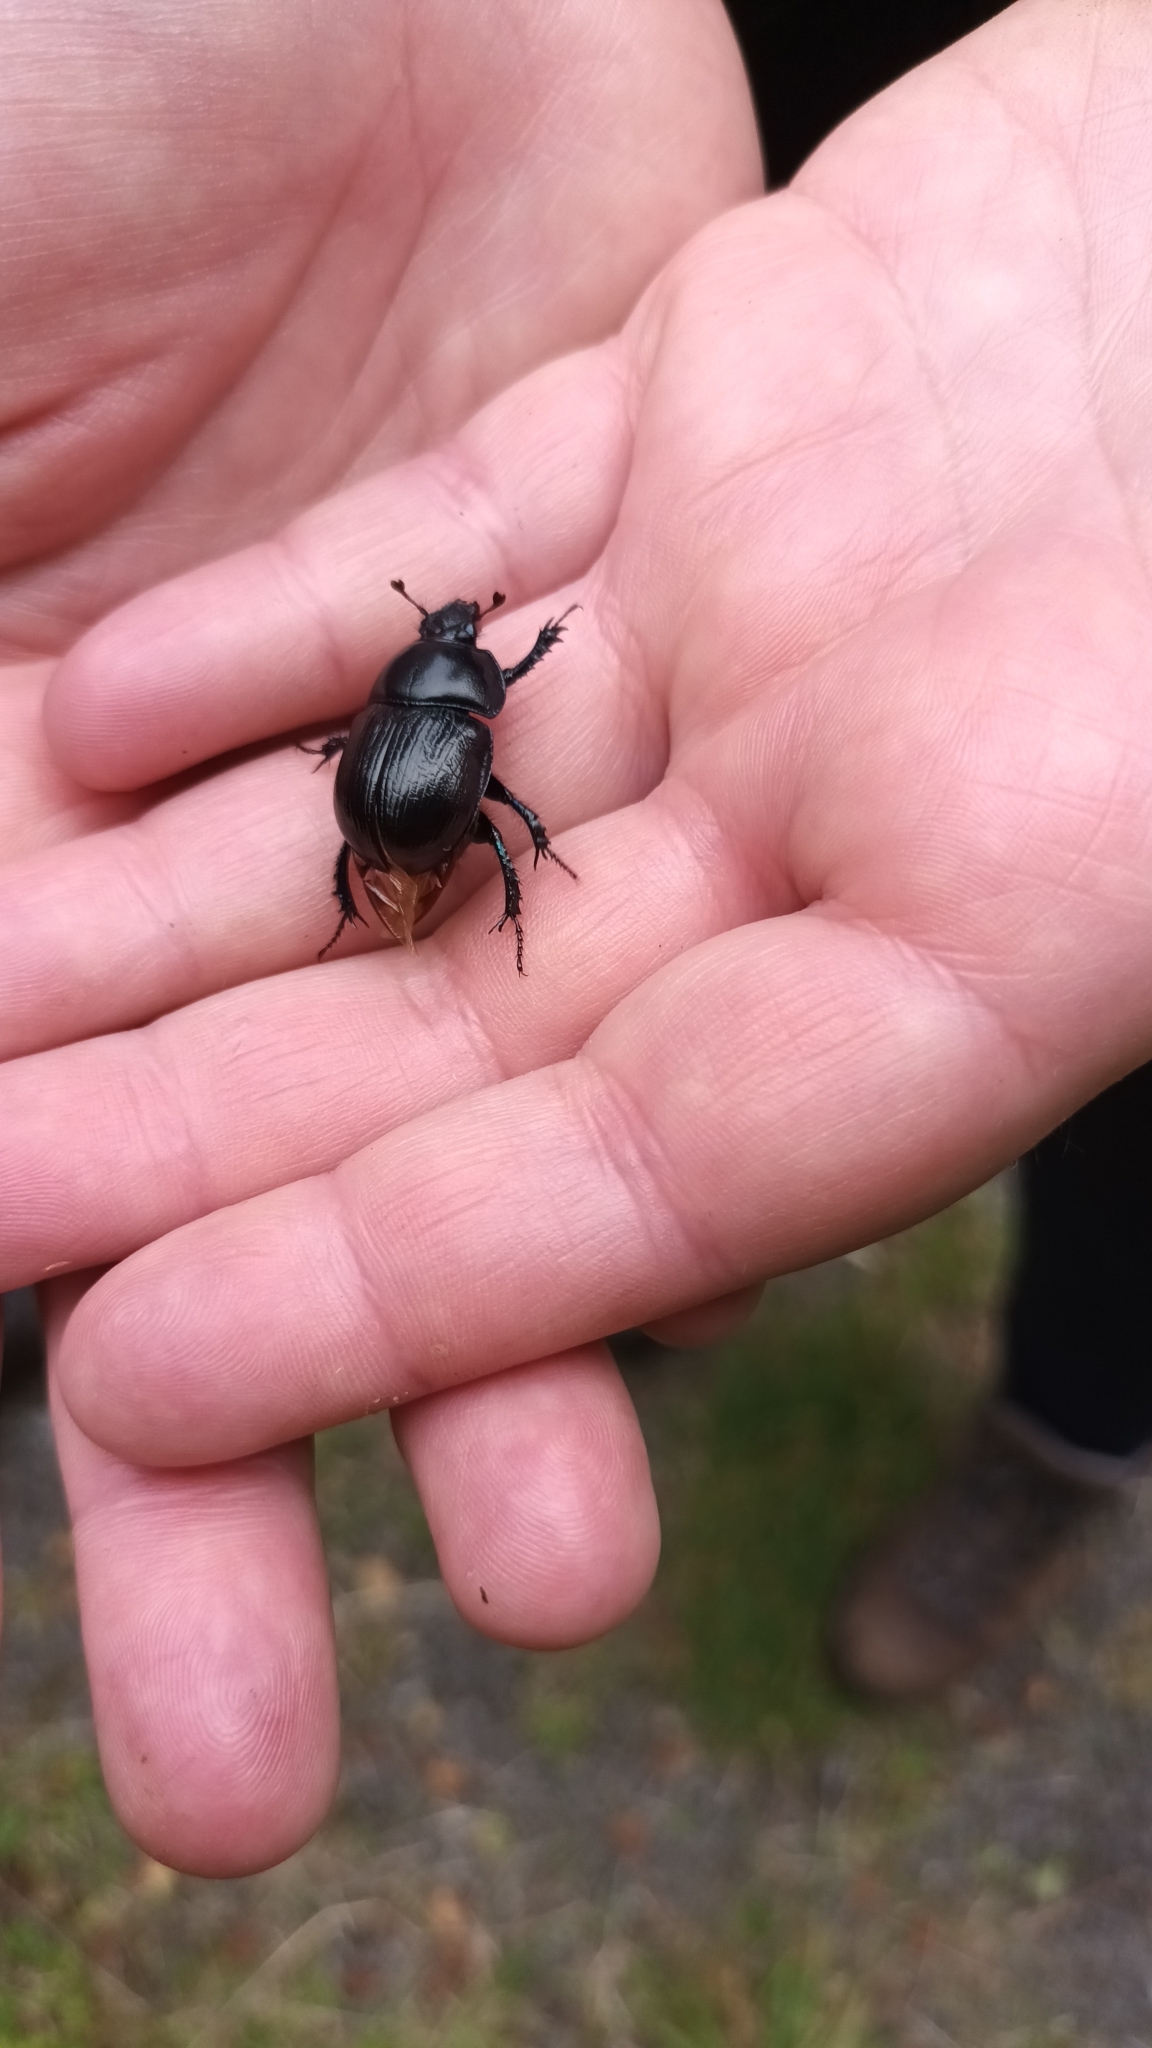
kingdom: Animalia
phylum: Arthropoda
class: Insecta
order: Coleoptera
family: Geotrupidae
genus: Anoplotrupes
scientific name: Anoplotrupes stercorosus
